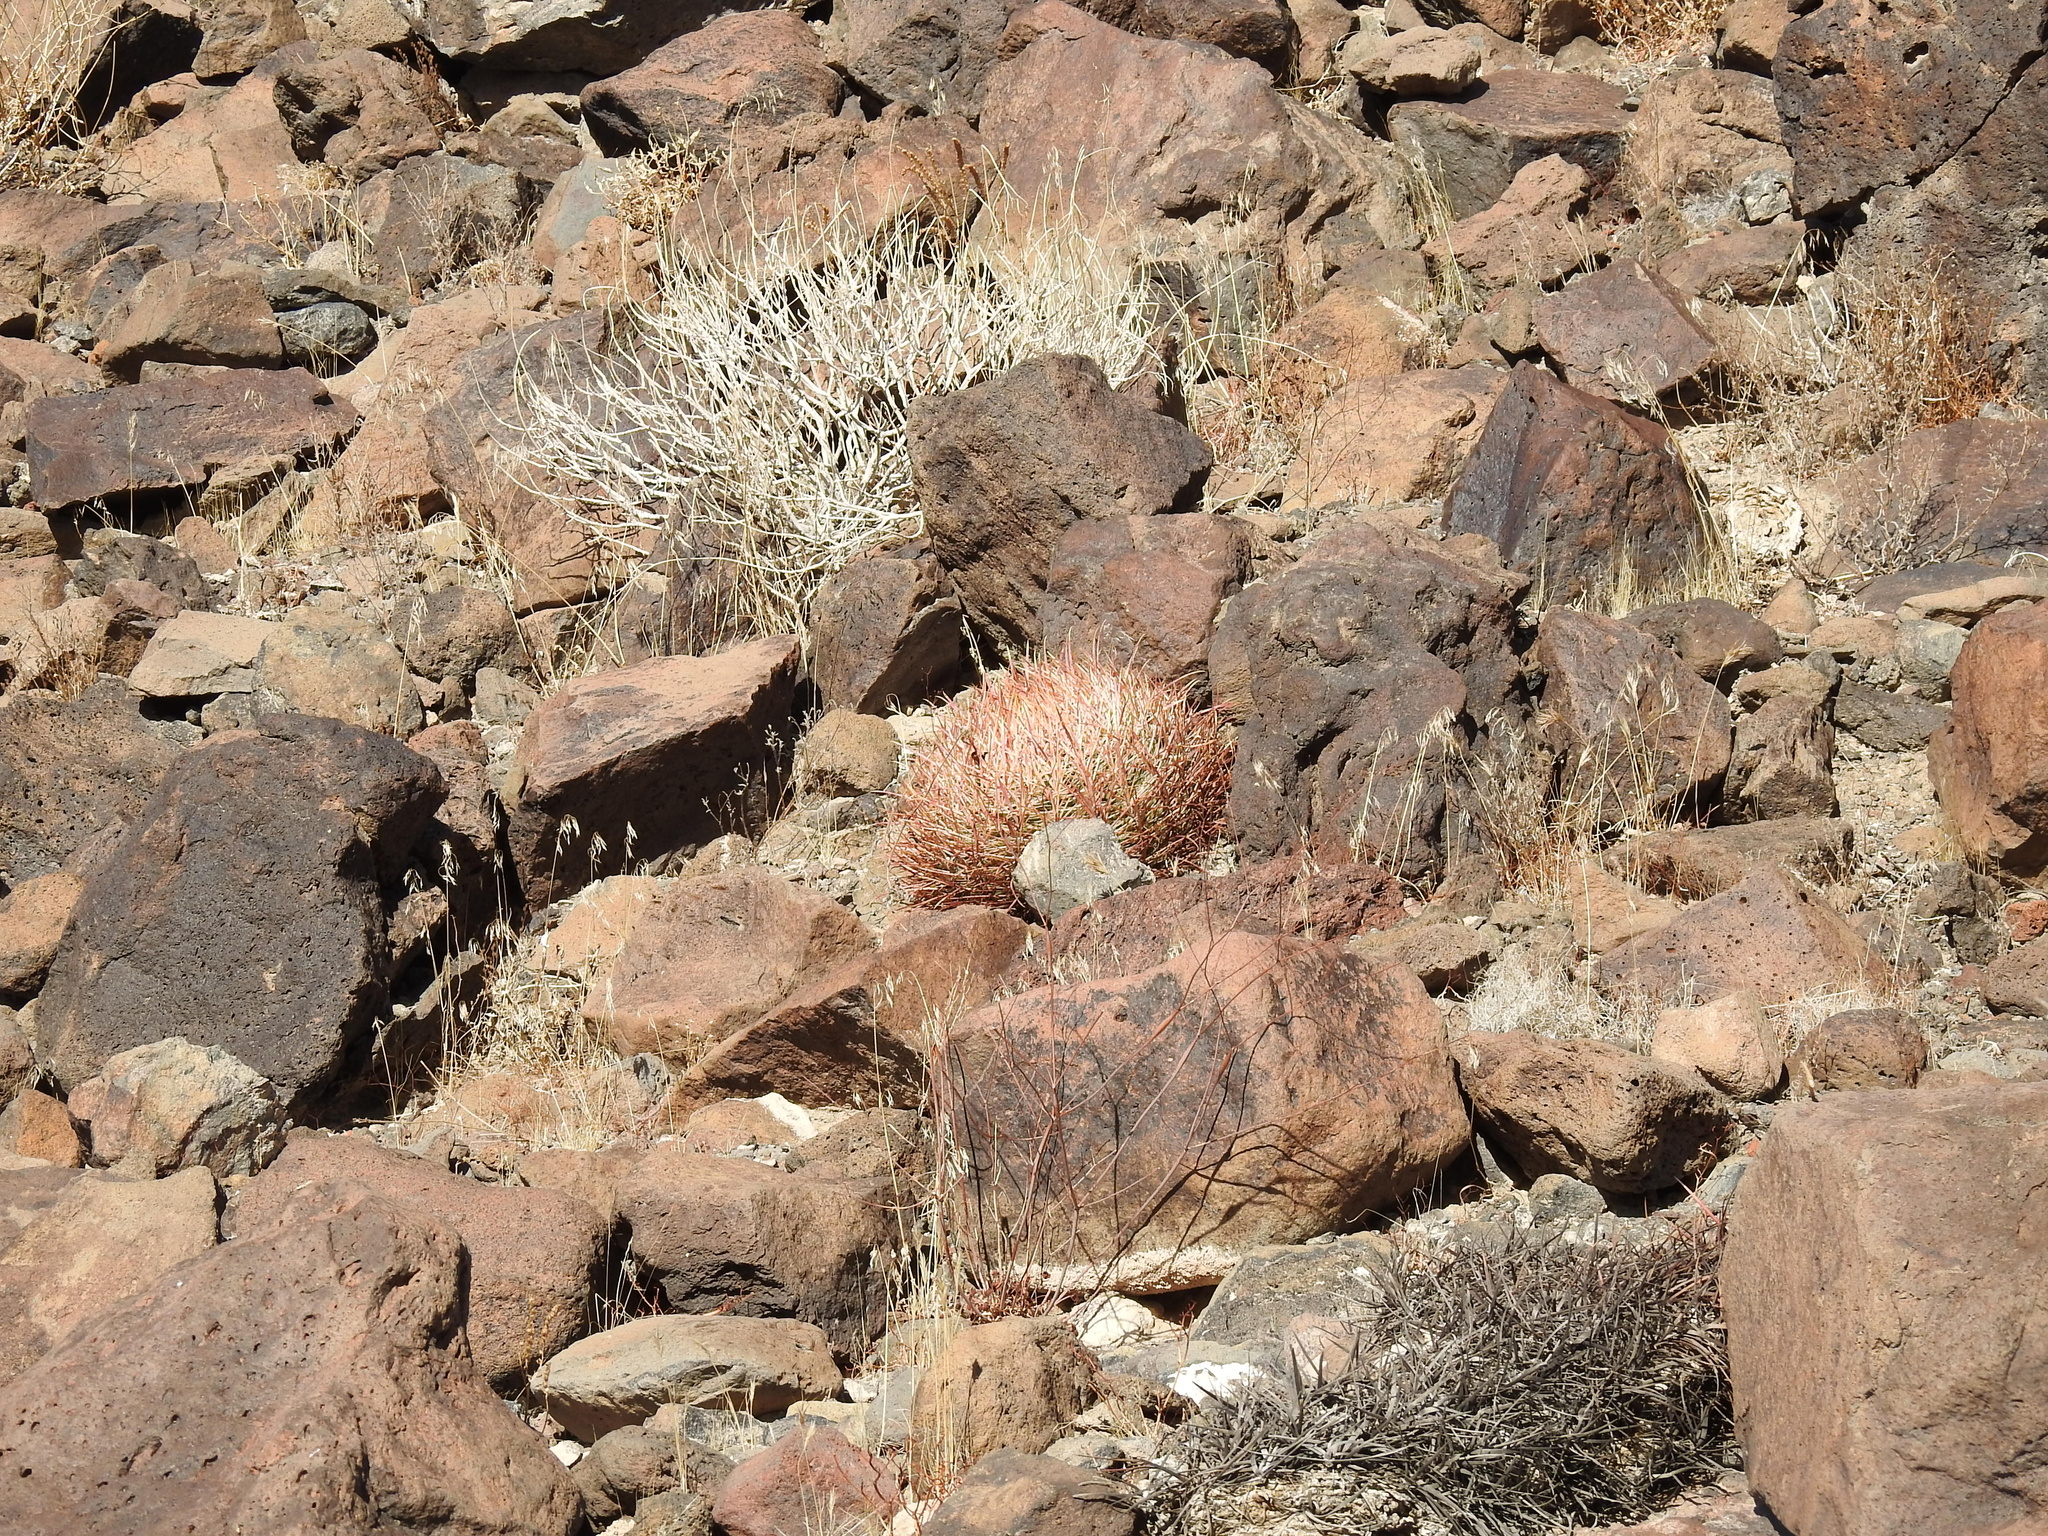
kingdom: Plantae
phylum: Tracheophyta
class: Magnoliopsida
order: Caryophyllales
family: Cactaceae
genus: Ferocactus
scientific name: Ferocactus cylindraceus
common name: California barrel cactus
